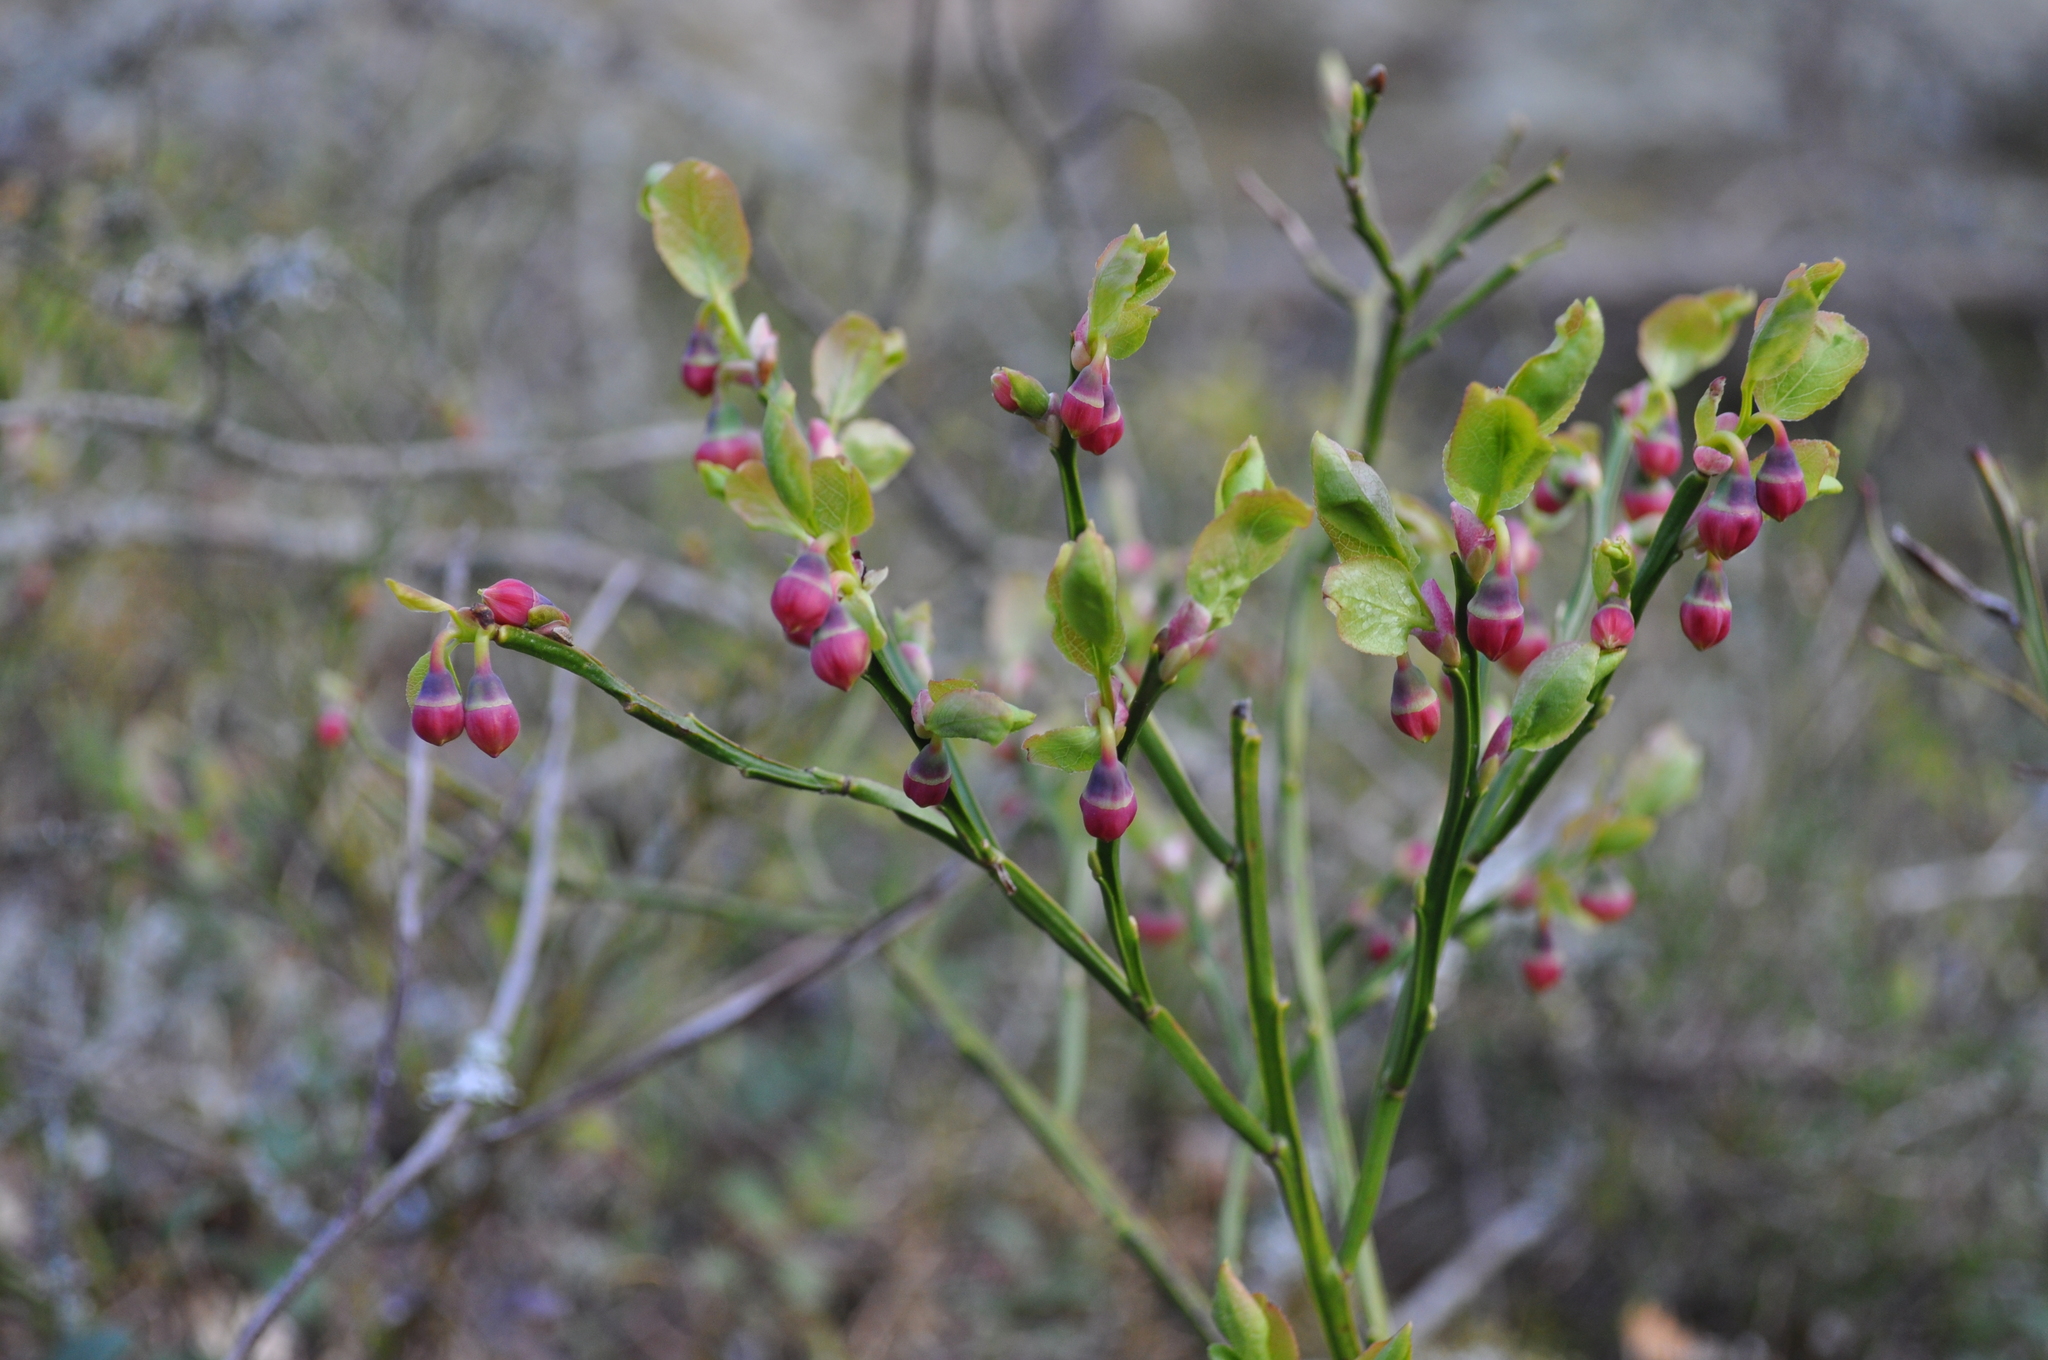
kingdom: Plantae
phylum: Tracheophyta
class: Magnoliopsida
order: Ericales
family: Ericaceae
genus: Vaccinium
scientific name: Vaccinium myrtillus
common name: Bilberry
